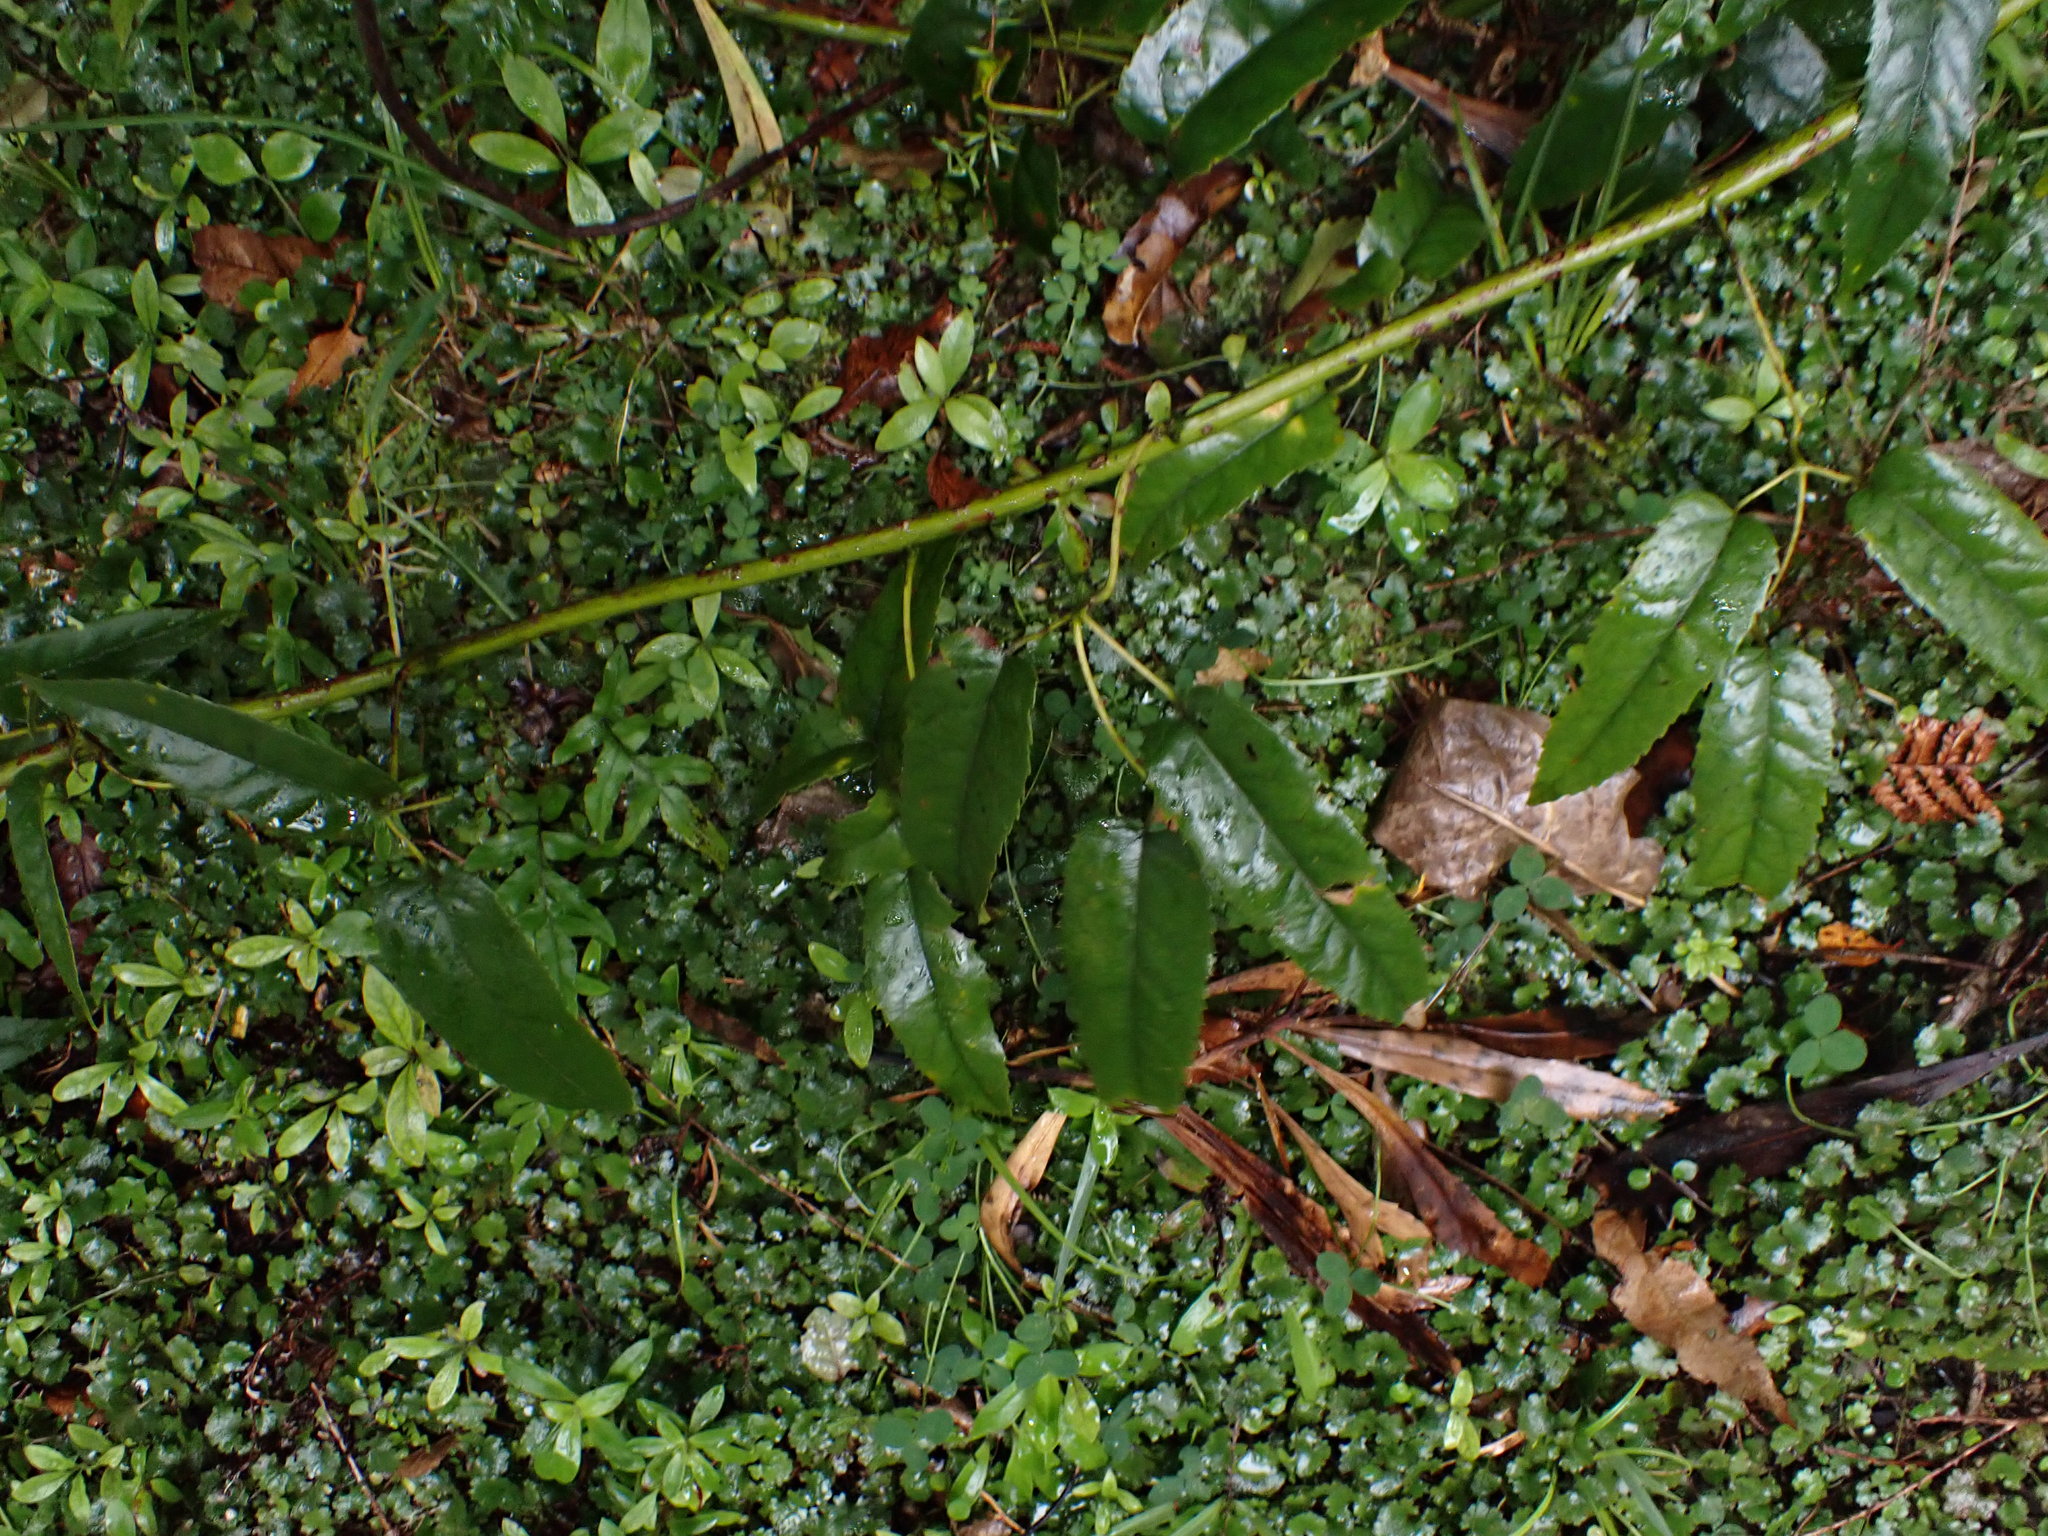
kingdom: Plantae
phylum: Tracheophyta
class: Magnoliopsida
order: Rosales
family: Rosaceae
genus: Rubus
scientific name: Rubus cissoides
